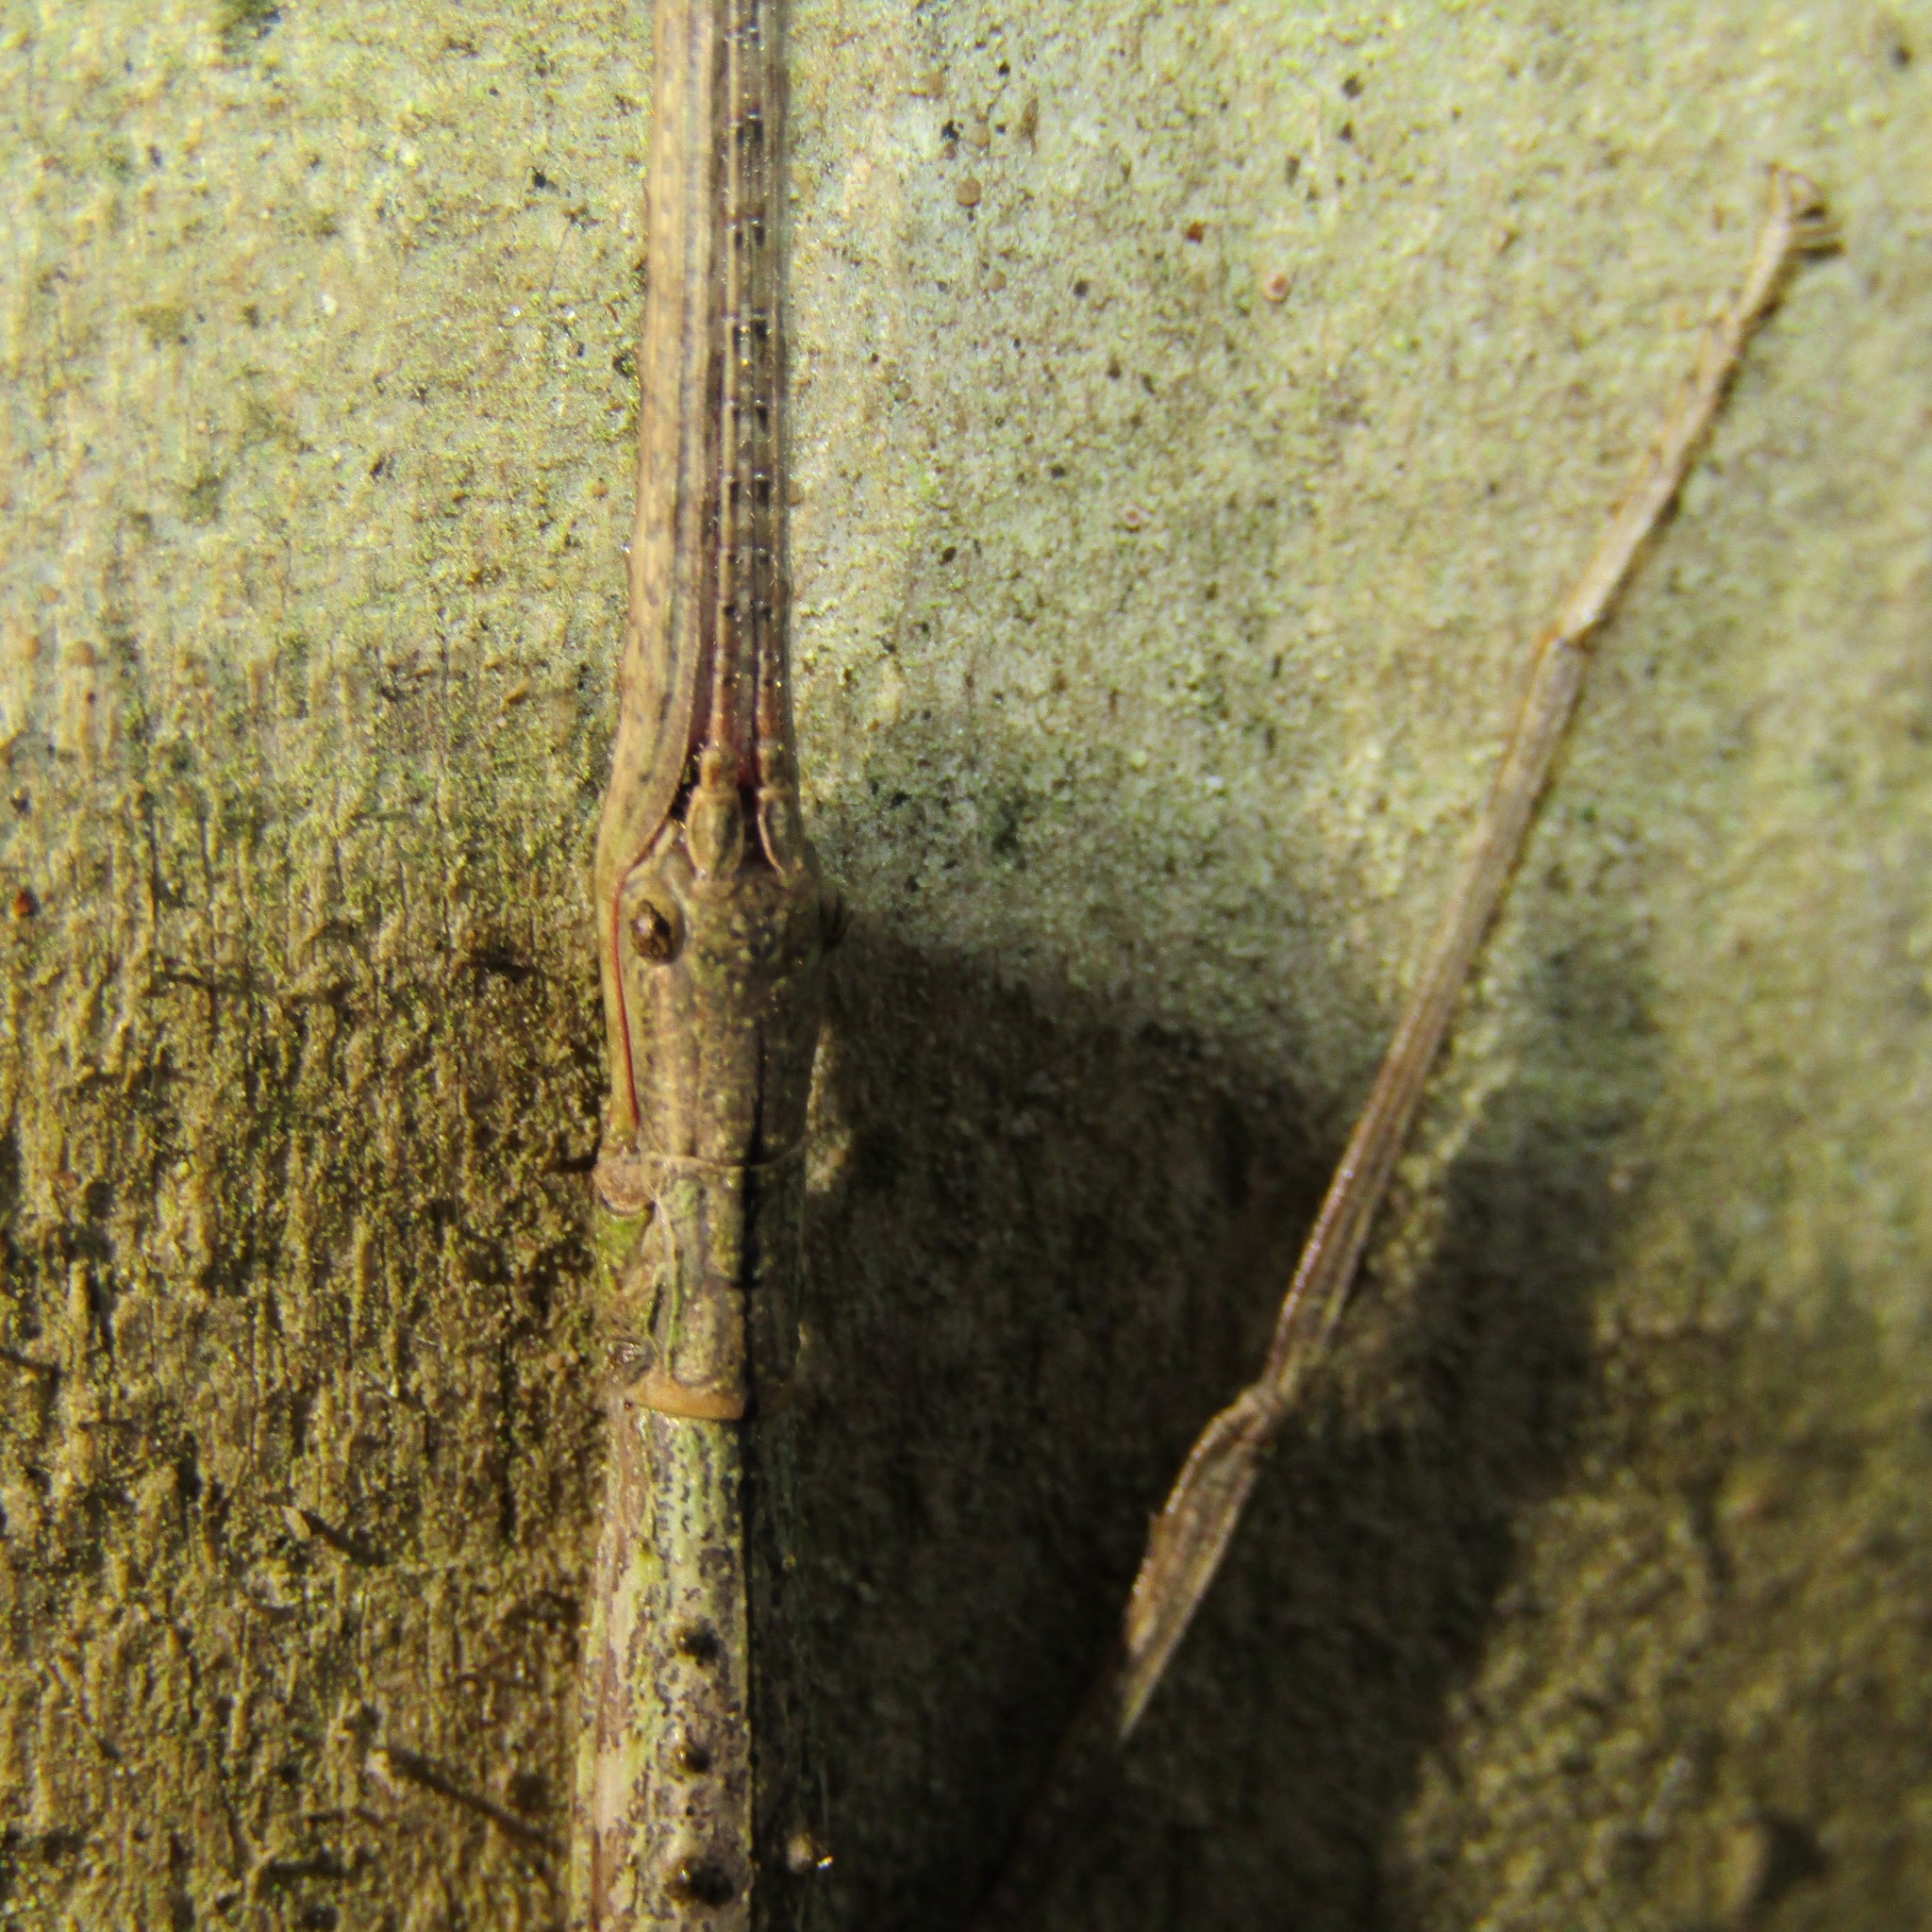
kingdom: Animalia
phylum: Arthropoda
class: Insecta
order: Phasmida
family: Phasmatidae
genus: Clitarchus
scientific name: Clitarchus hookeri
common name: Smooth stick insect
